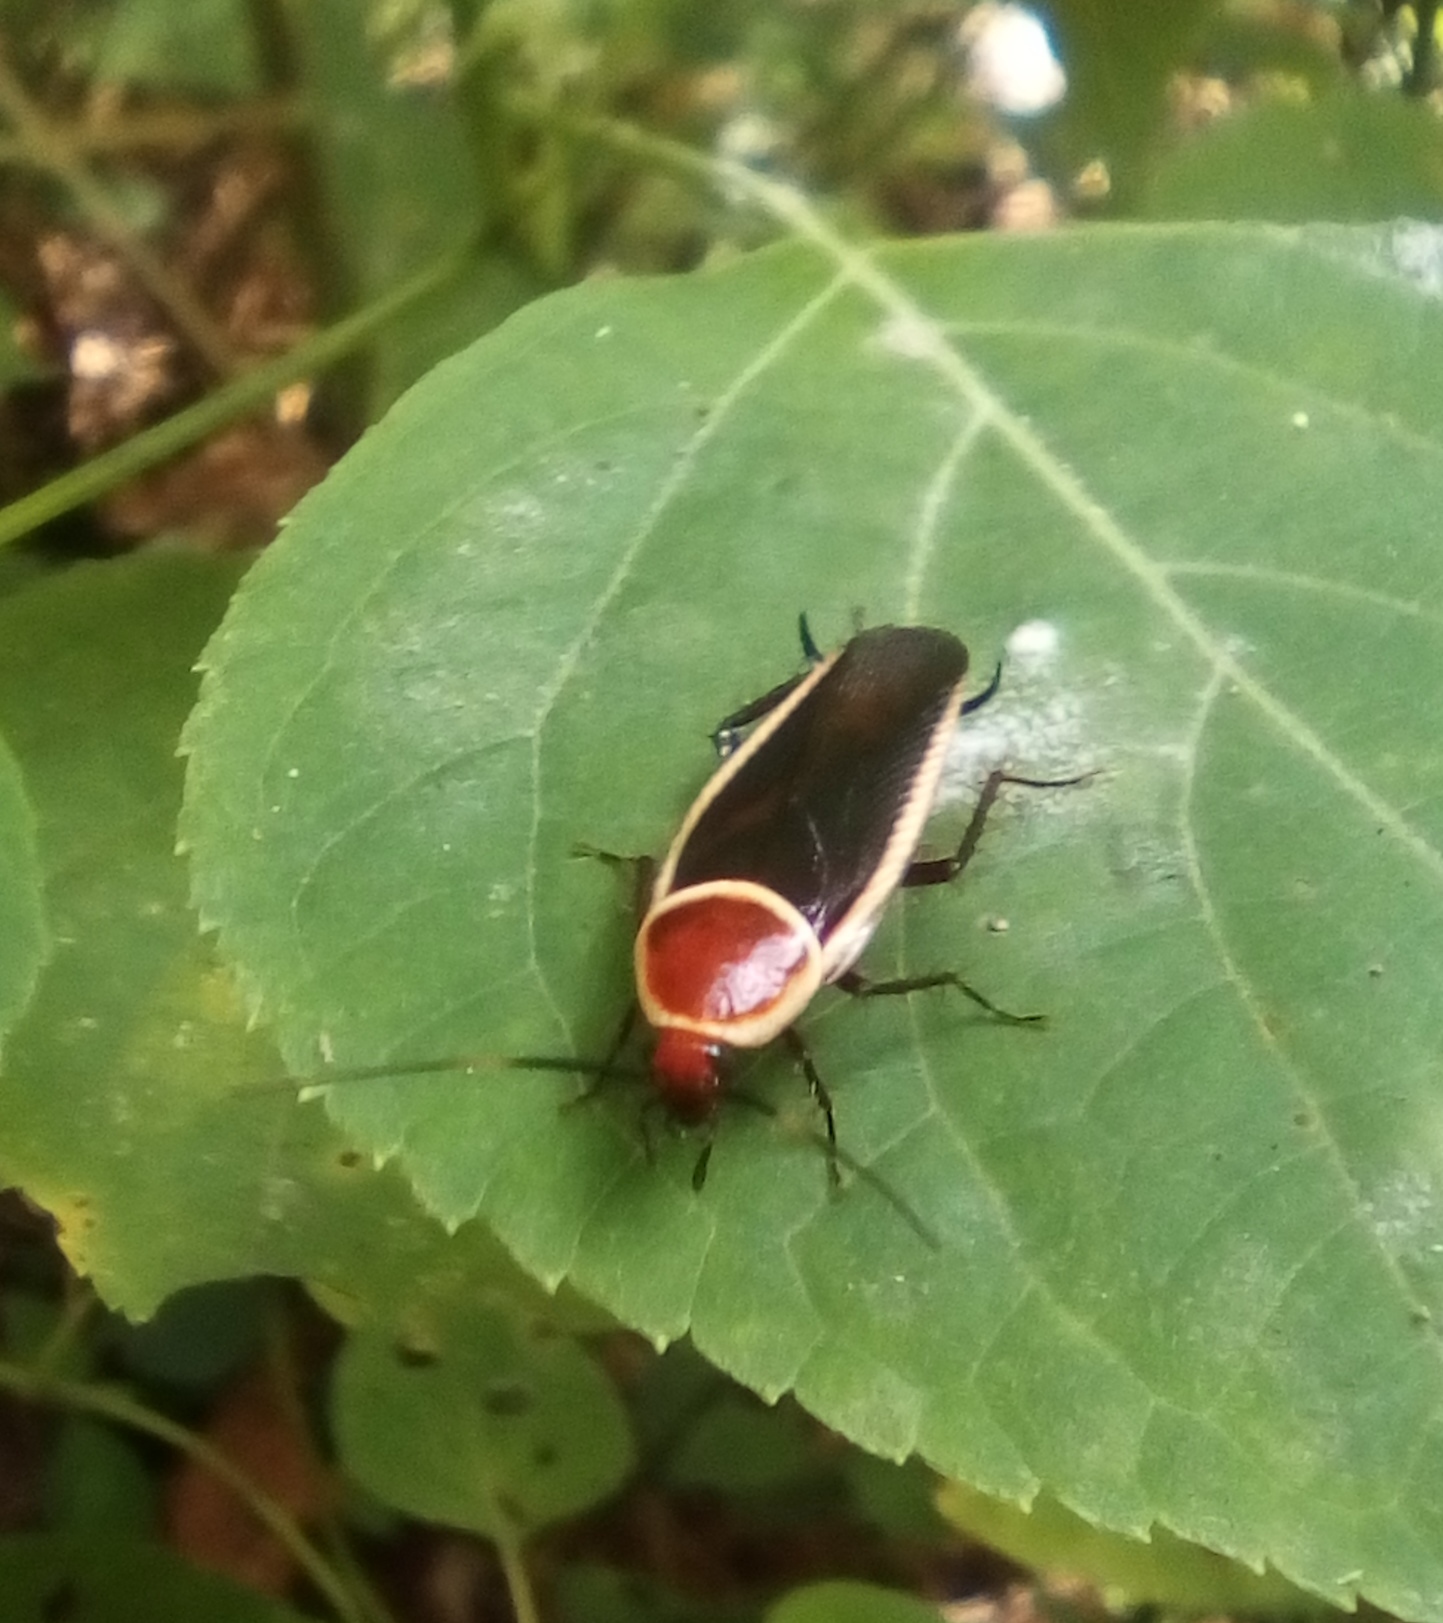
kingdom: Animalia
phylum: Arthropoda
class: Insecta
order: Blattodea
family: Ectobiidae
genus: Pseudomops
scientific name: Pseudomops septentrionalis
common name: Pale-bordered field cockroach
